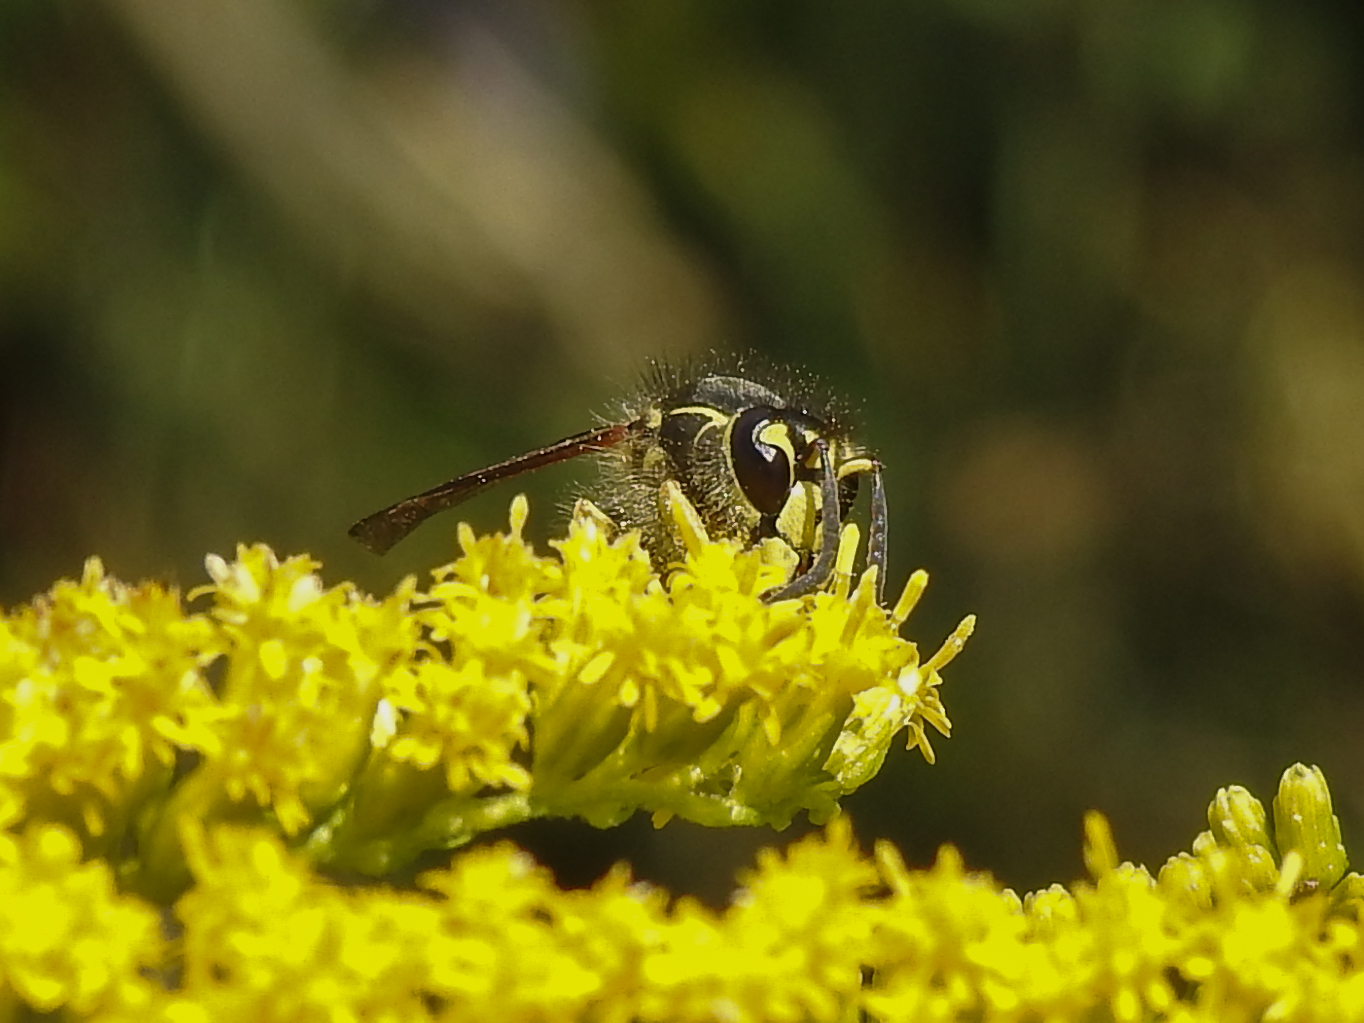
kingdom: Animalia
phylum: Arthropoda
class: Insecta
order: Hymenoptera
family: Vespidae
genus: Dolichovespula
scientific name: Dolichovespula arenaria
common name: Aerial yellowjacket
